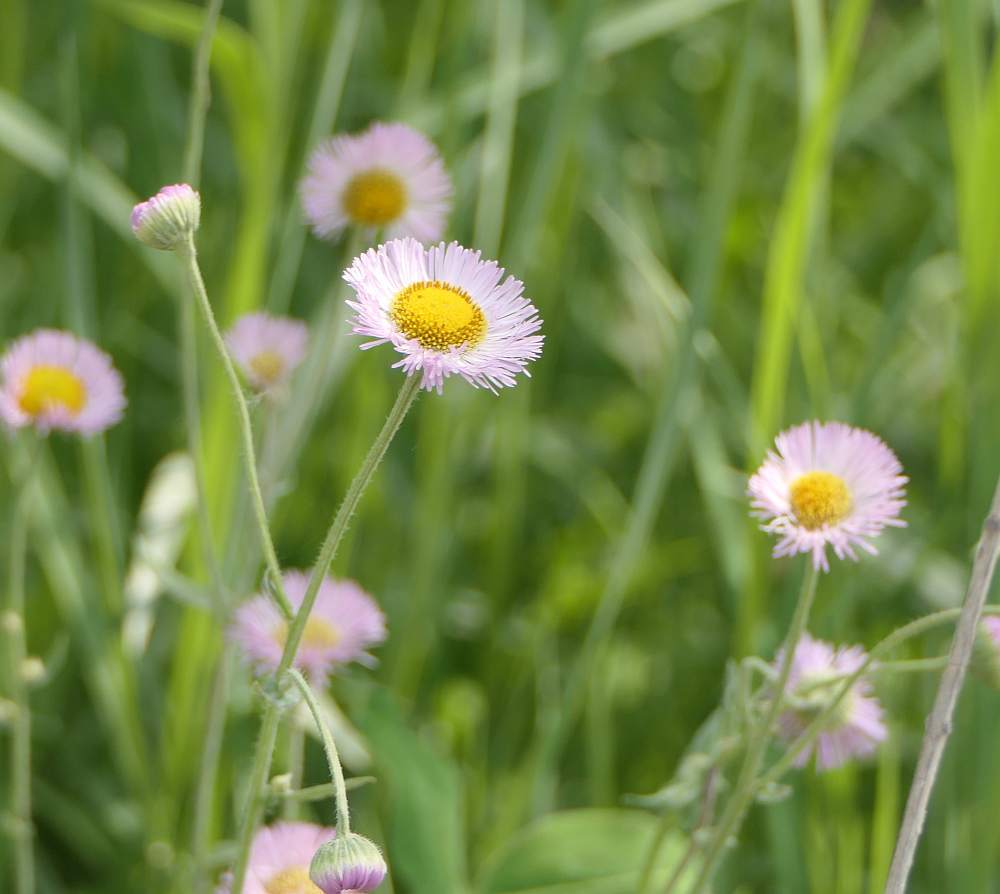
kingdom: Plantae
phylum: Tracheophyta
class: Magnoliopsida
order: Asterales
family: Asteraceae
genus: Erigeron
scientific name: Erigeron philadelphicus
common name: Robin's-plantain
